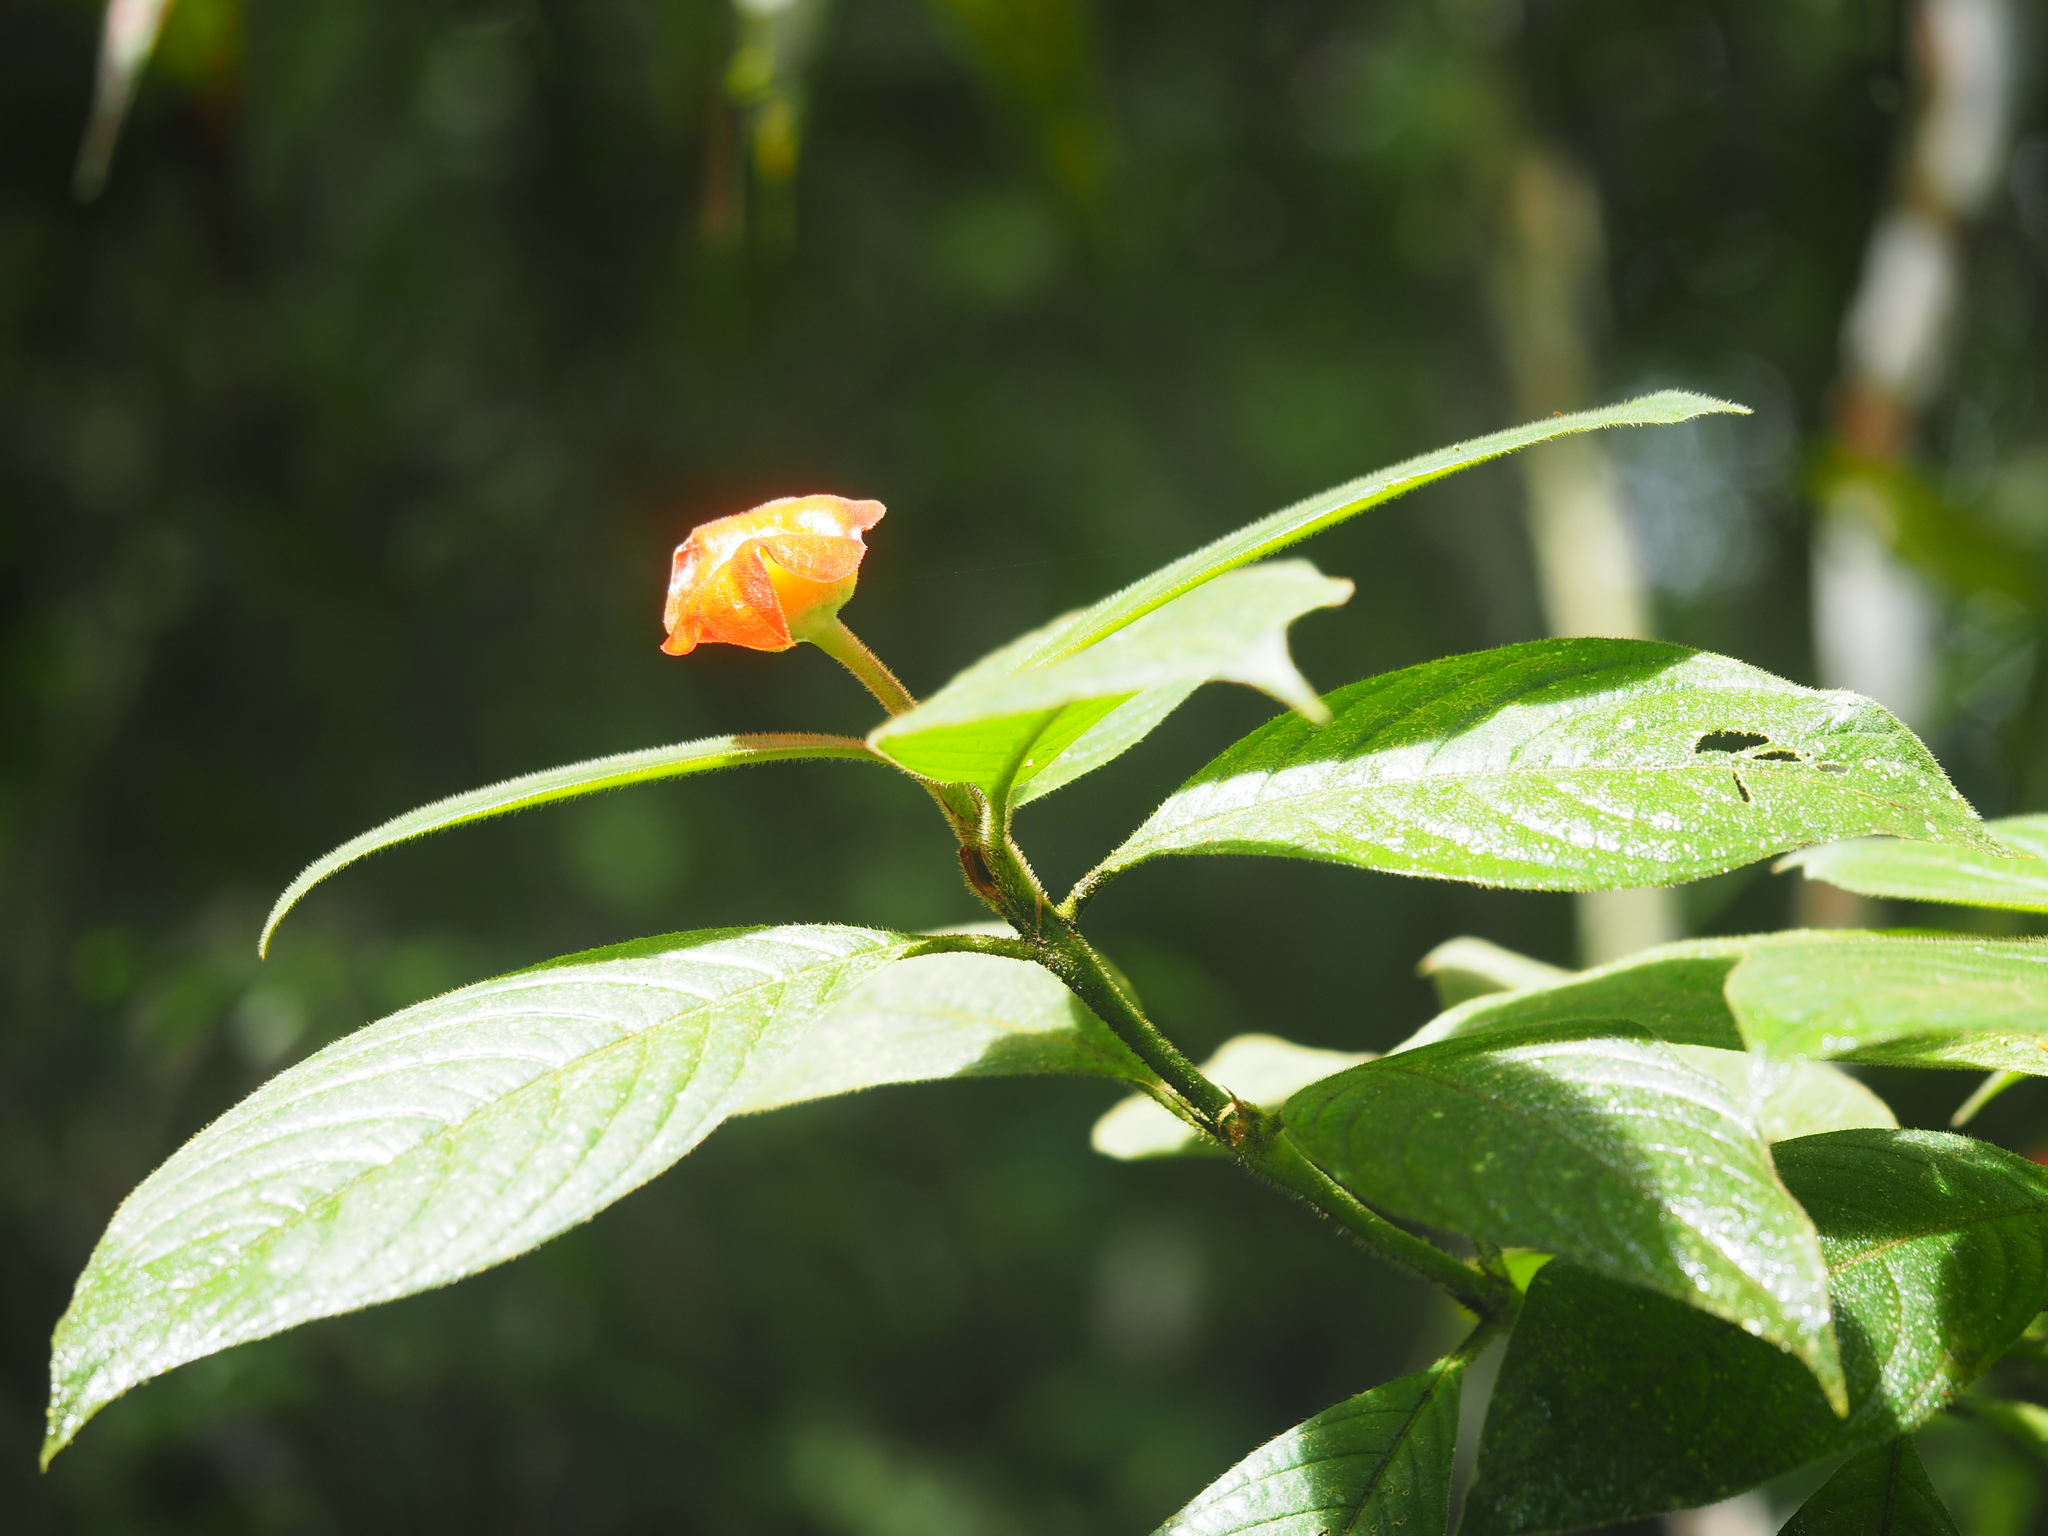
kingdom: Plantae
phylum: Tracheophyta
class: Magnoliopsida
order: Gentianales
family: Rubiaceae
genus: Palicourea
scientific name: Palicourea tomentosa
